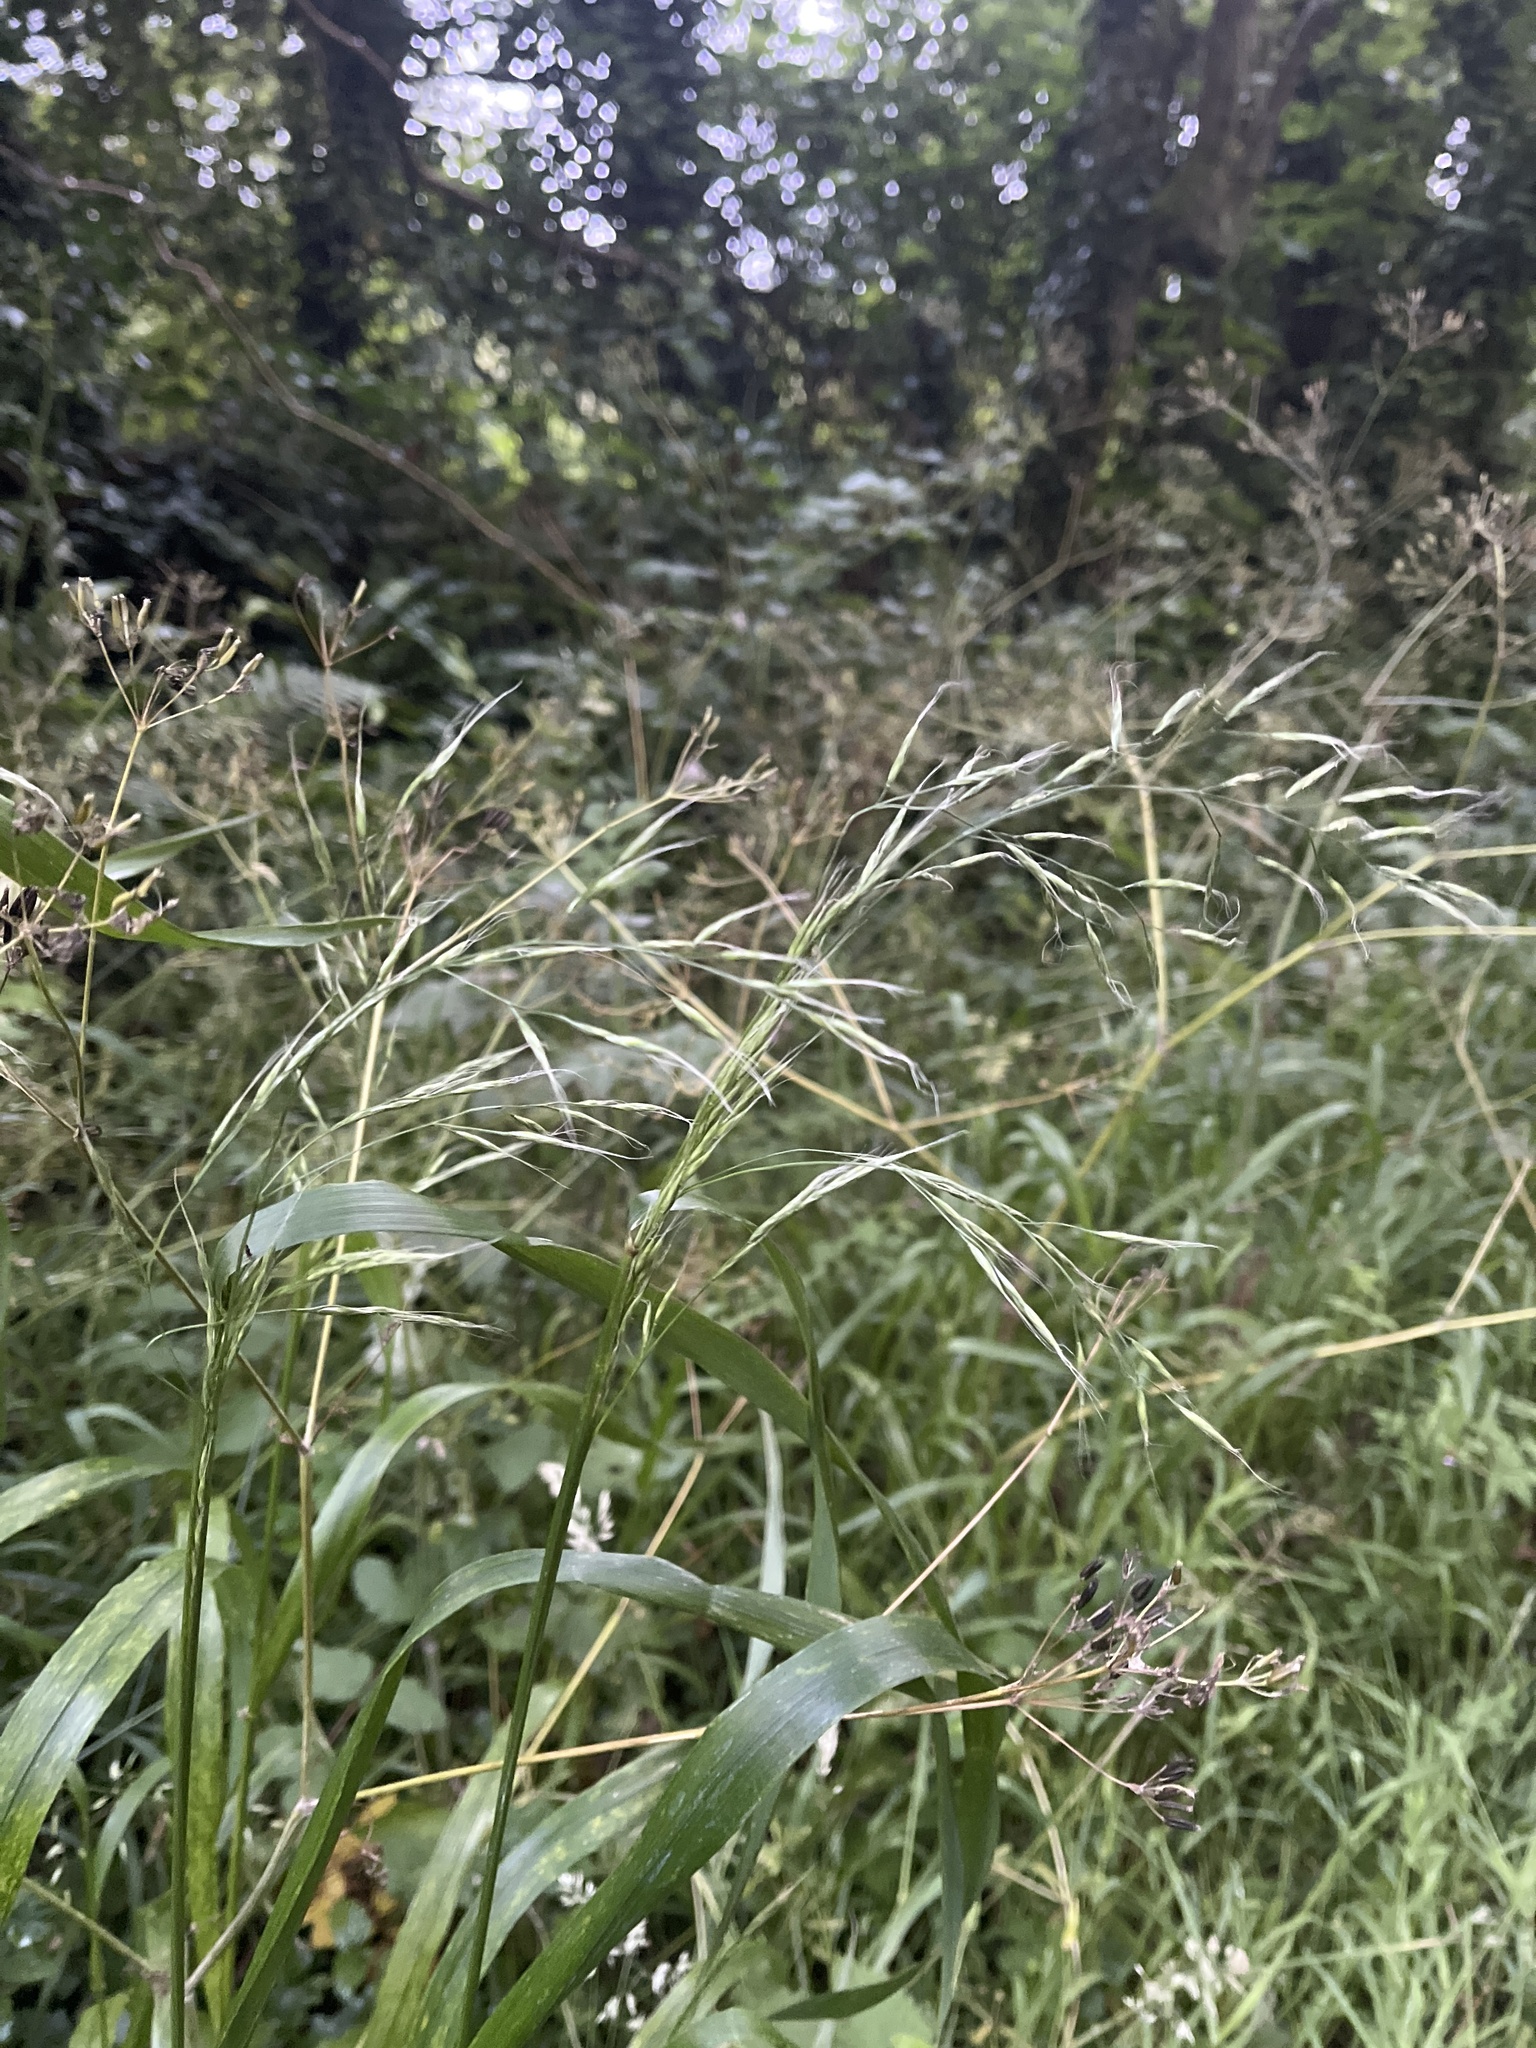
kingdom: Plantae
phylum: Tracheophyta
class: Liliopsida
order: Poales
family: Poaceae
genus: Lolium
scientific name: Lolium giganteum
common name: Giant fescue
